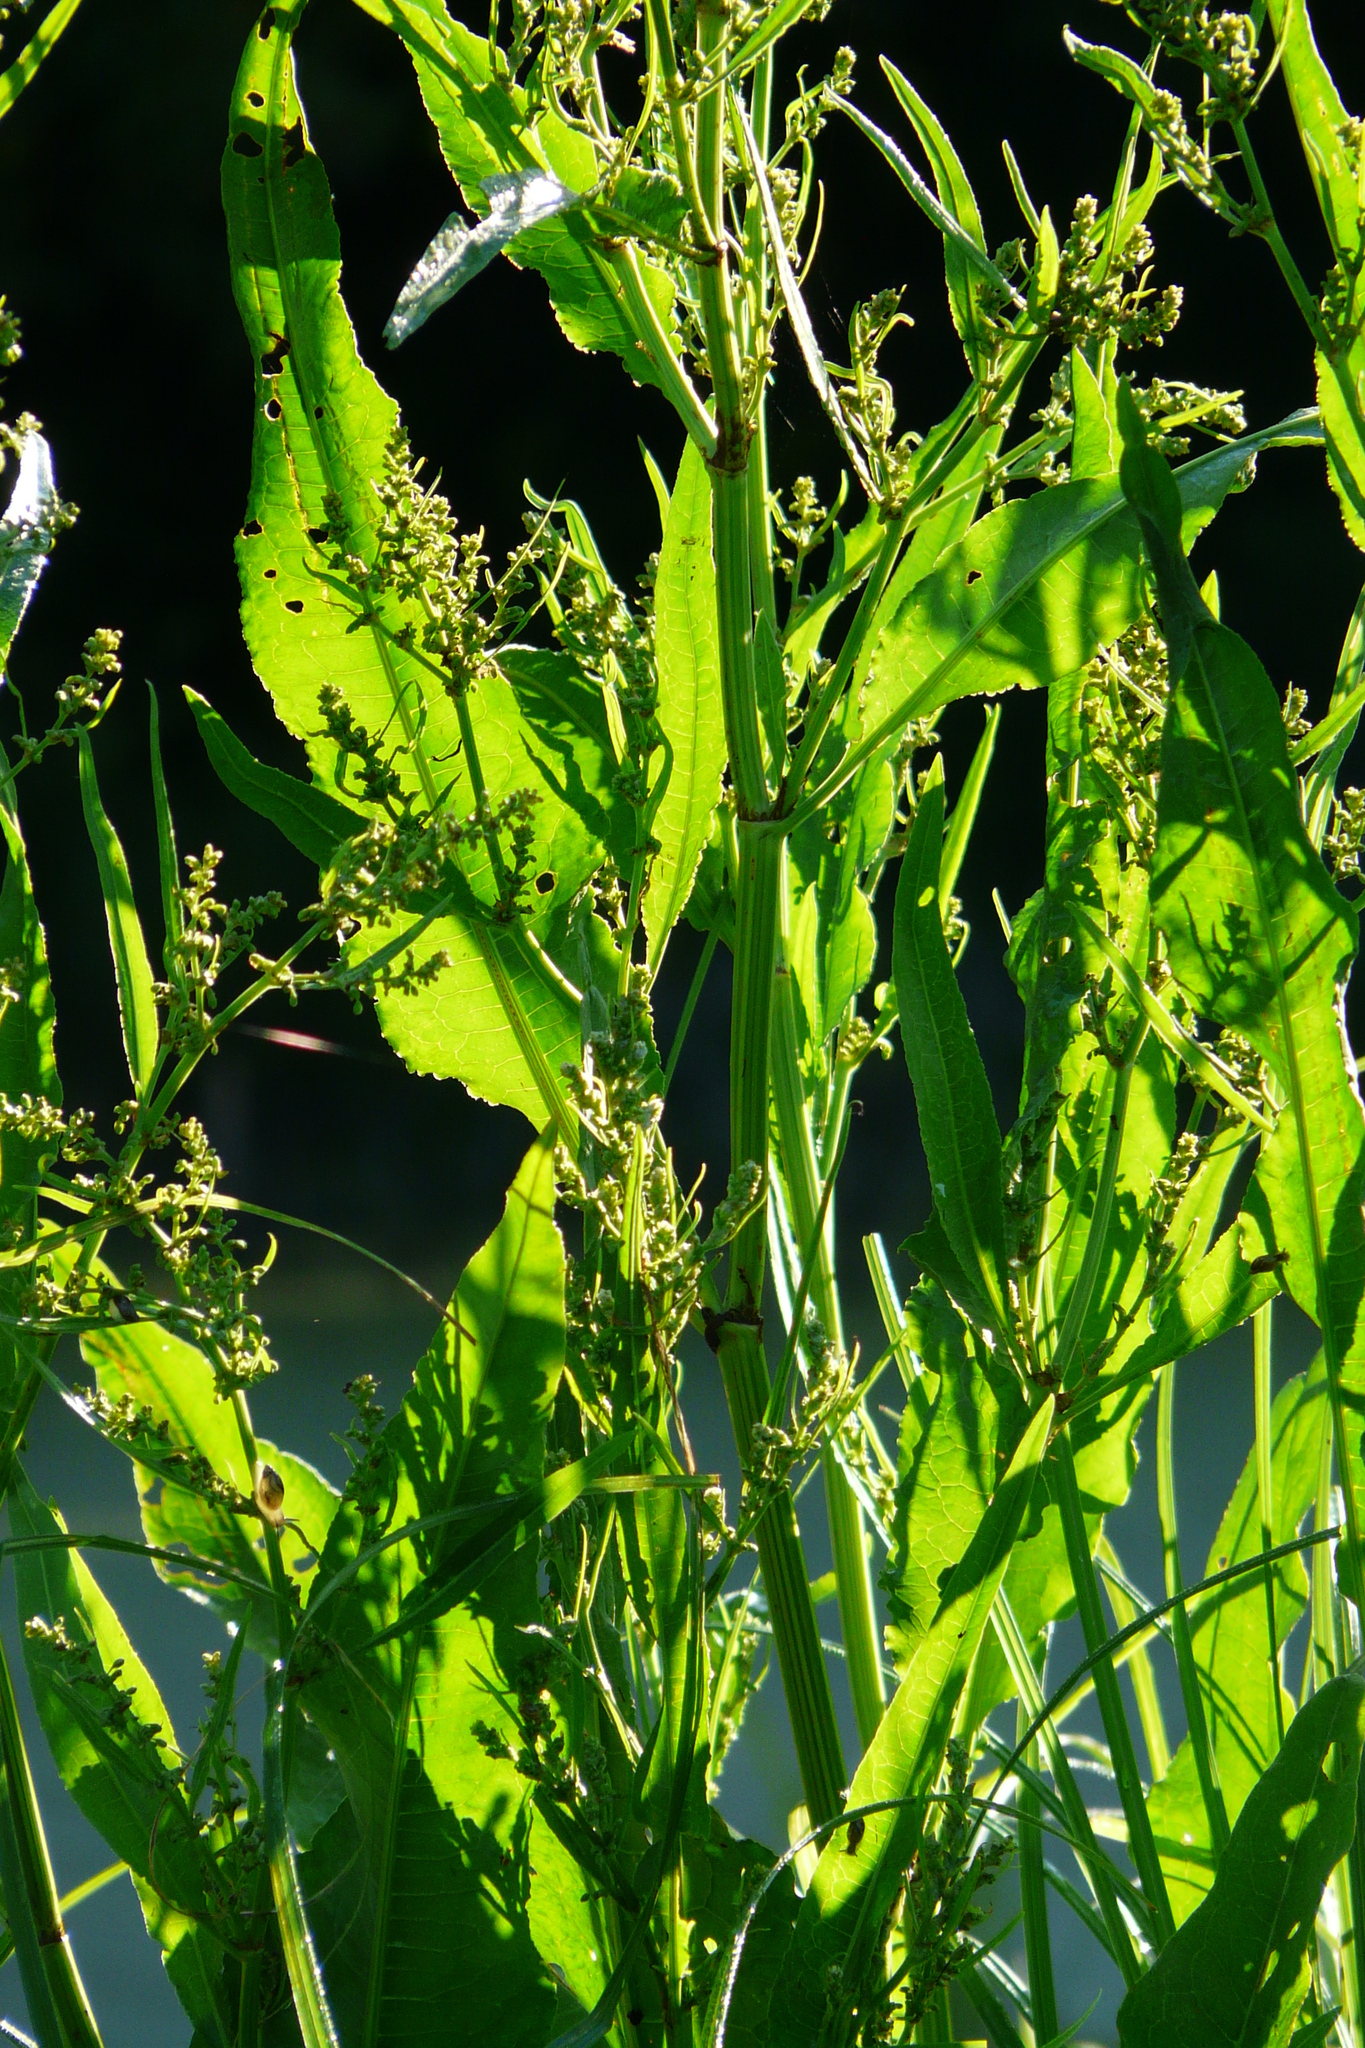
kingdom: Plantae
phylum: Tracheophyta
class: Magnoliopsida
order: Caryophyllales
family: Polygonaceae
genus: Rumex
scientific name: Rumex hydrolapathum
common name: Water dock
